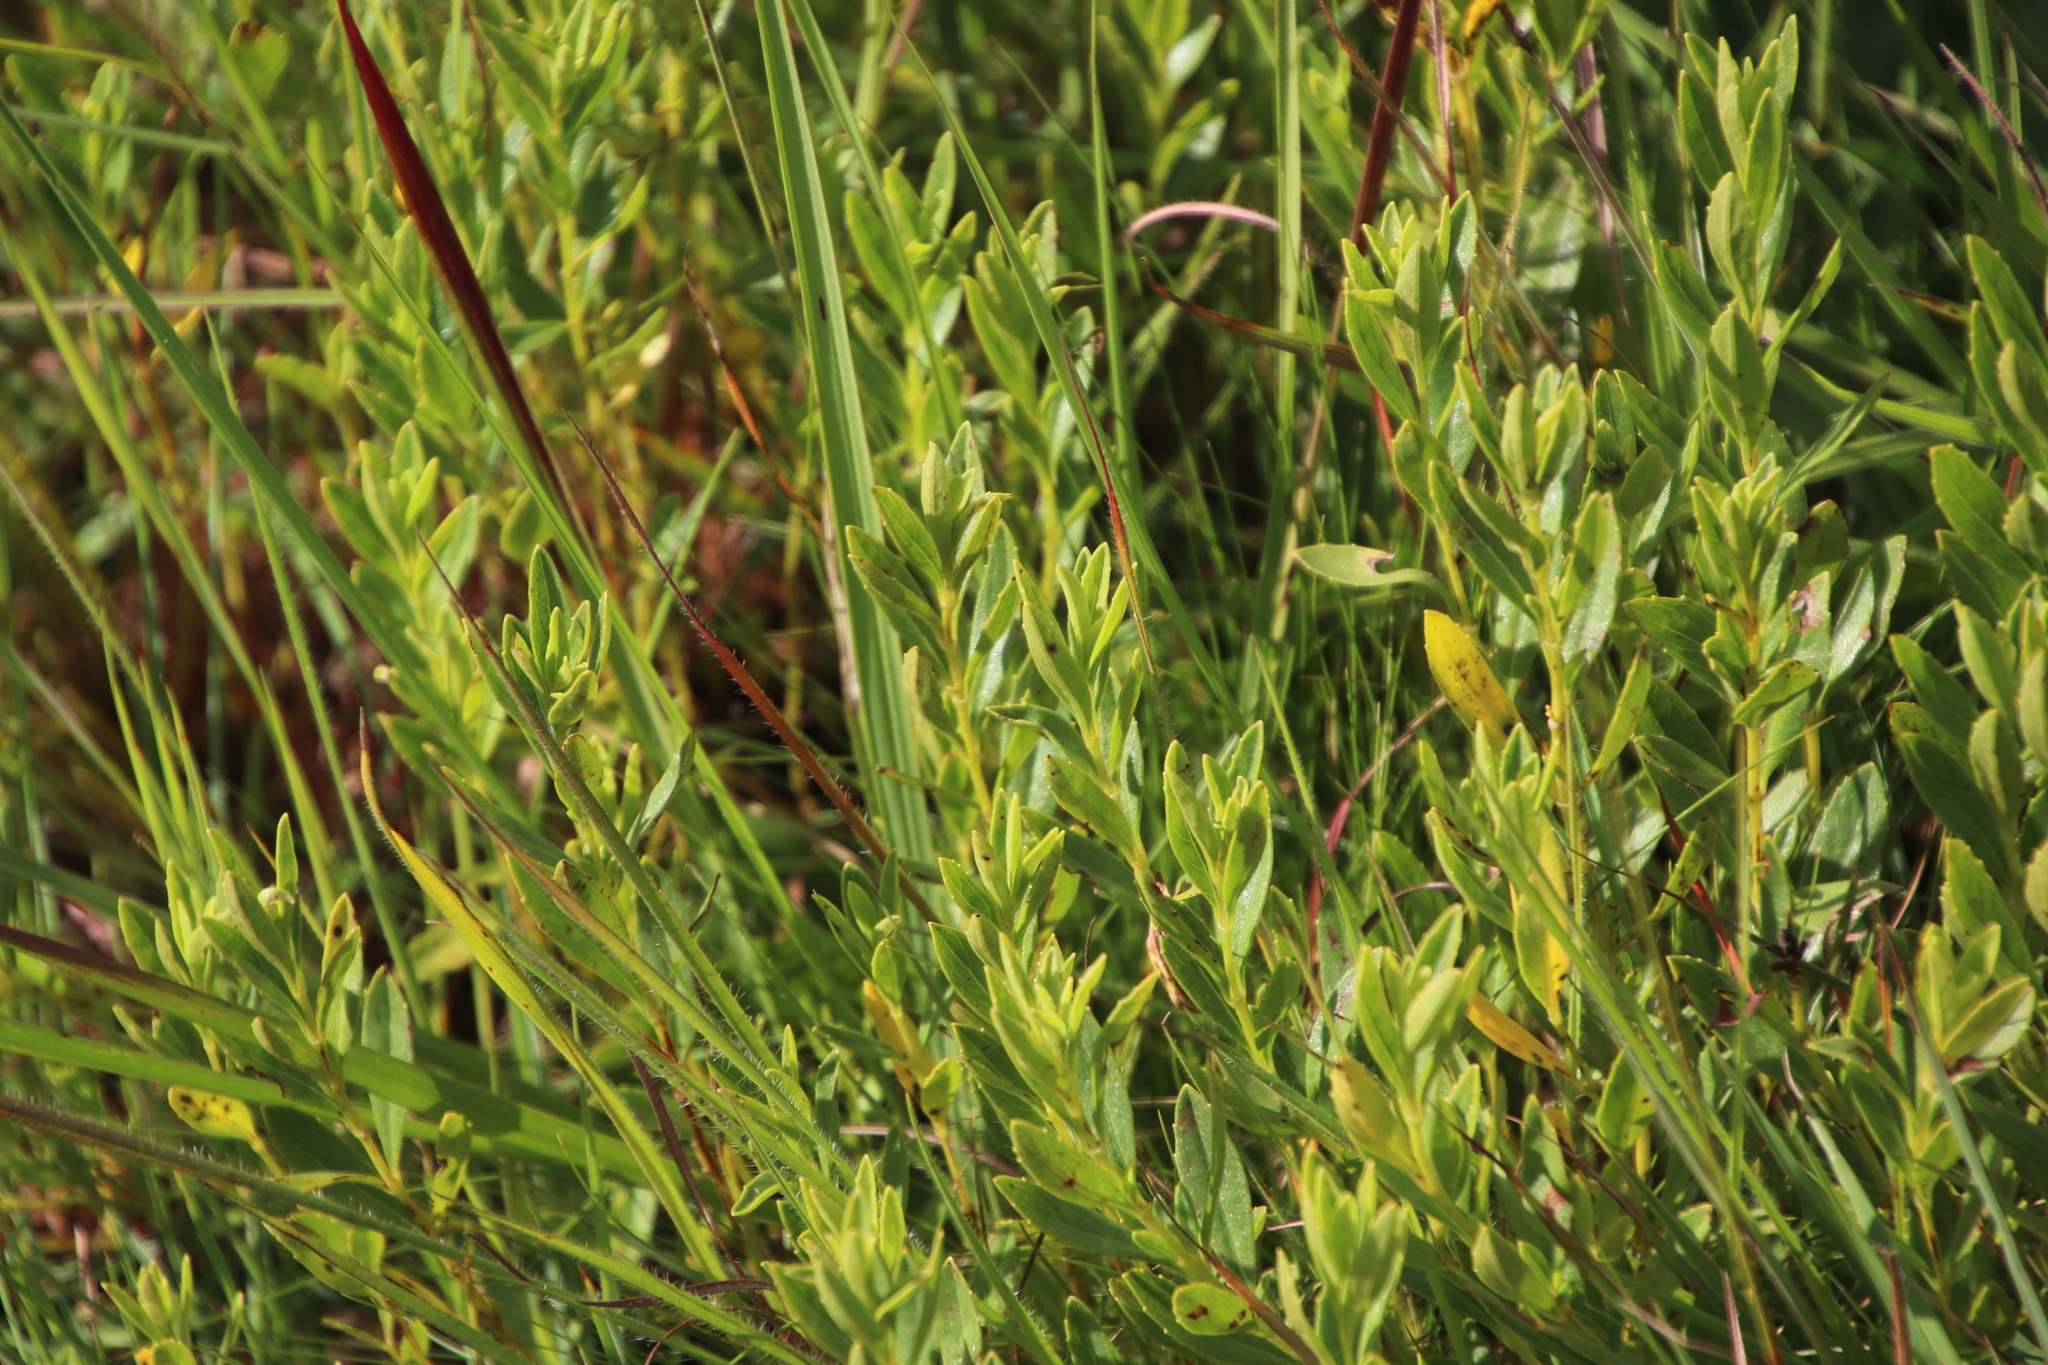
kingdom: Plantae
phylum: Tracheophyta
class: Magnoliopsida
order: Fagales
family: Myricaceae
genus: Morella
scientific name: Morella brevifolia
